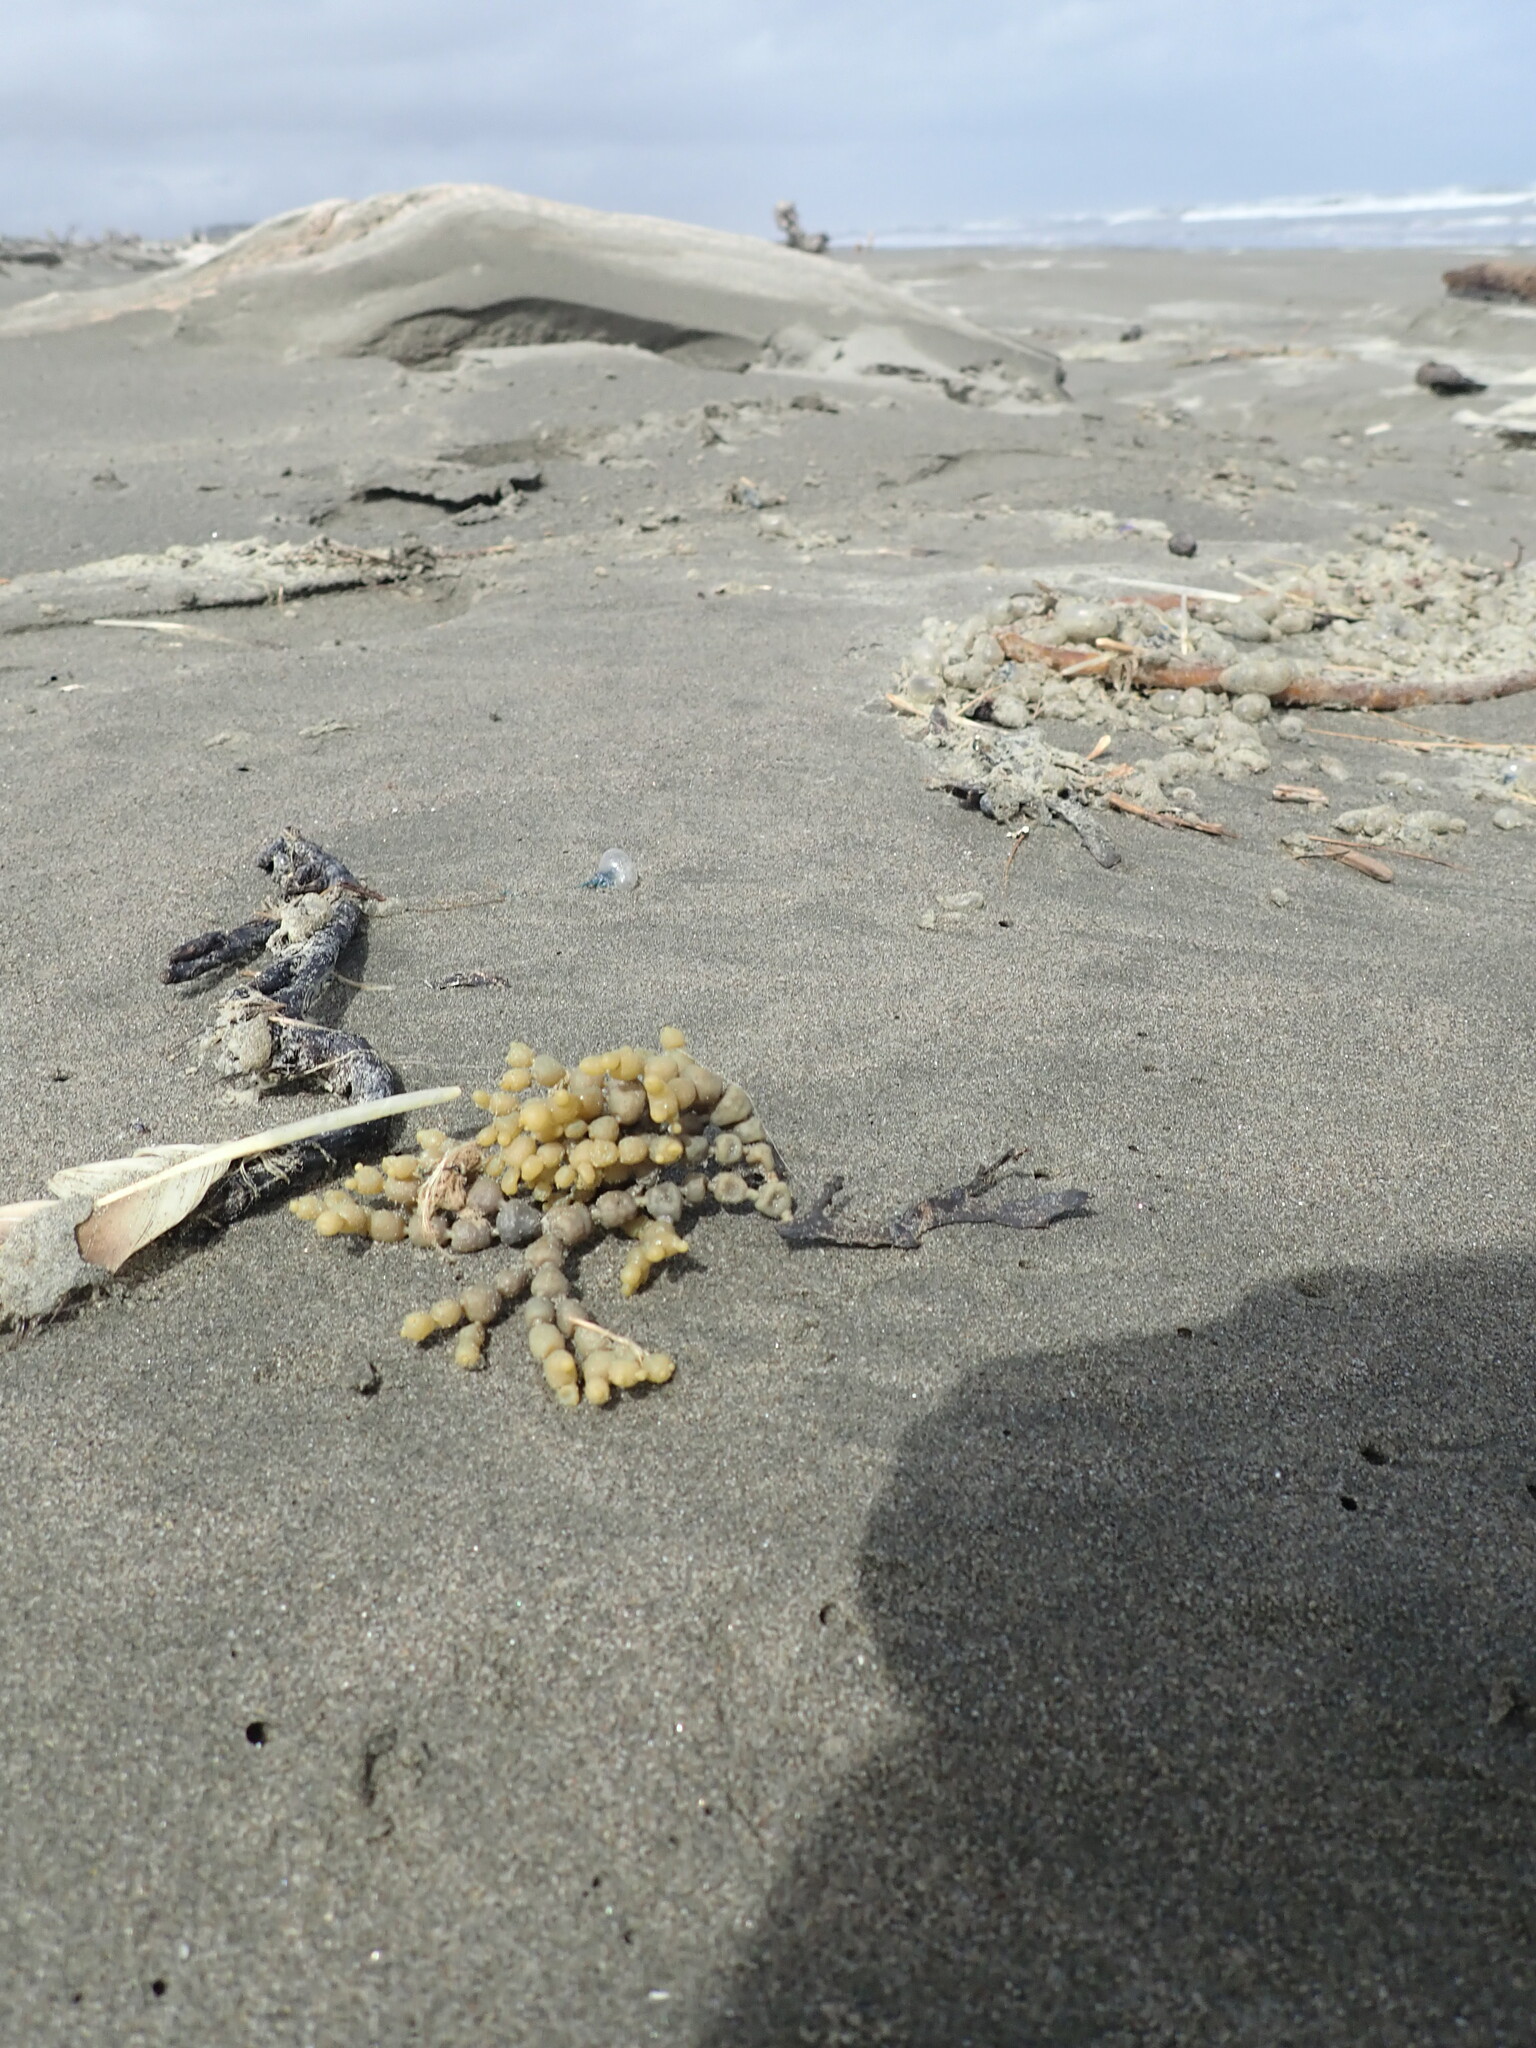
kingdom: Chromista
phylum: Ochrophyta
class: Phaeophyceae
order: Fucales
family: Hormosiraceae
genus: Hormosira
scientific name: Hormosira banksii
